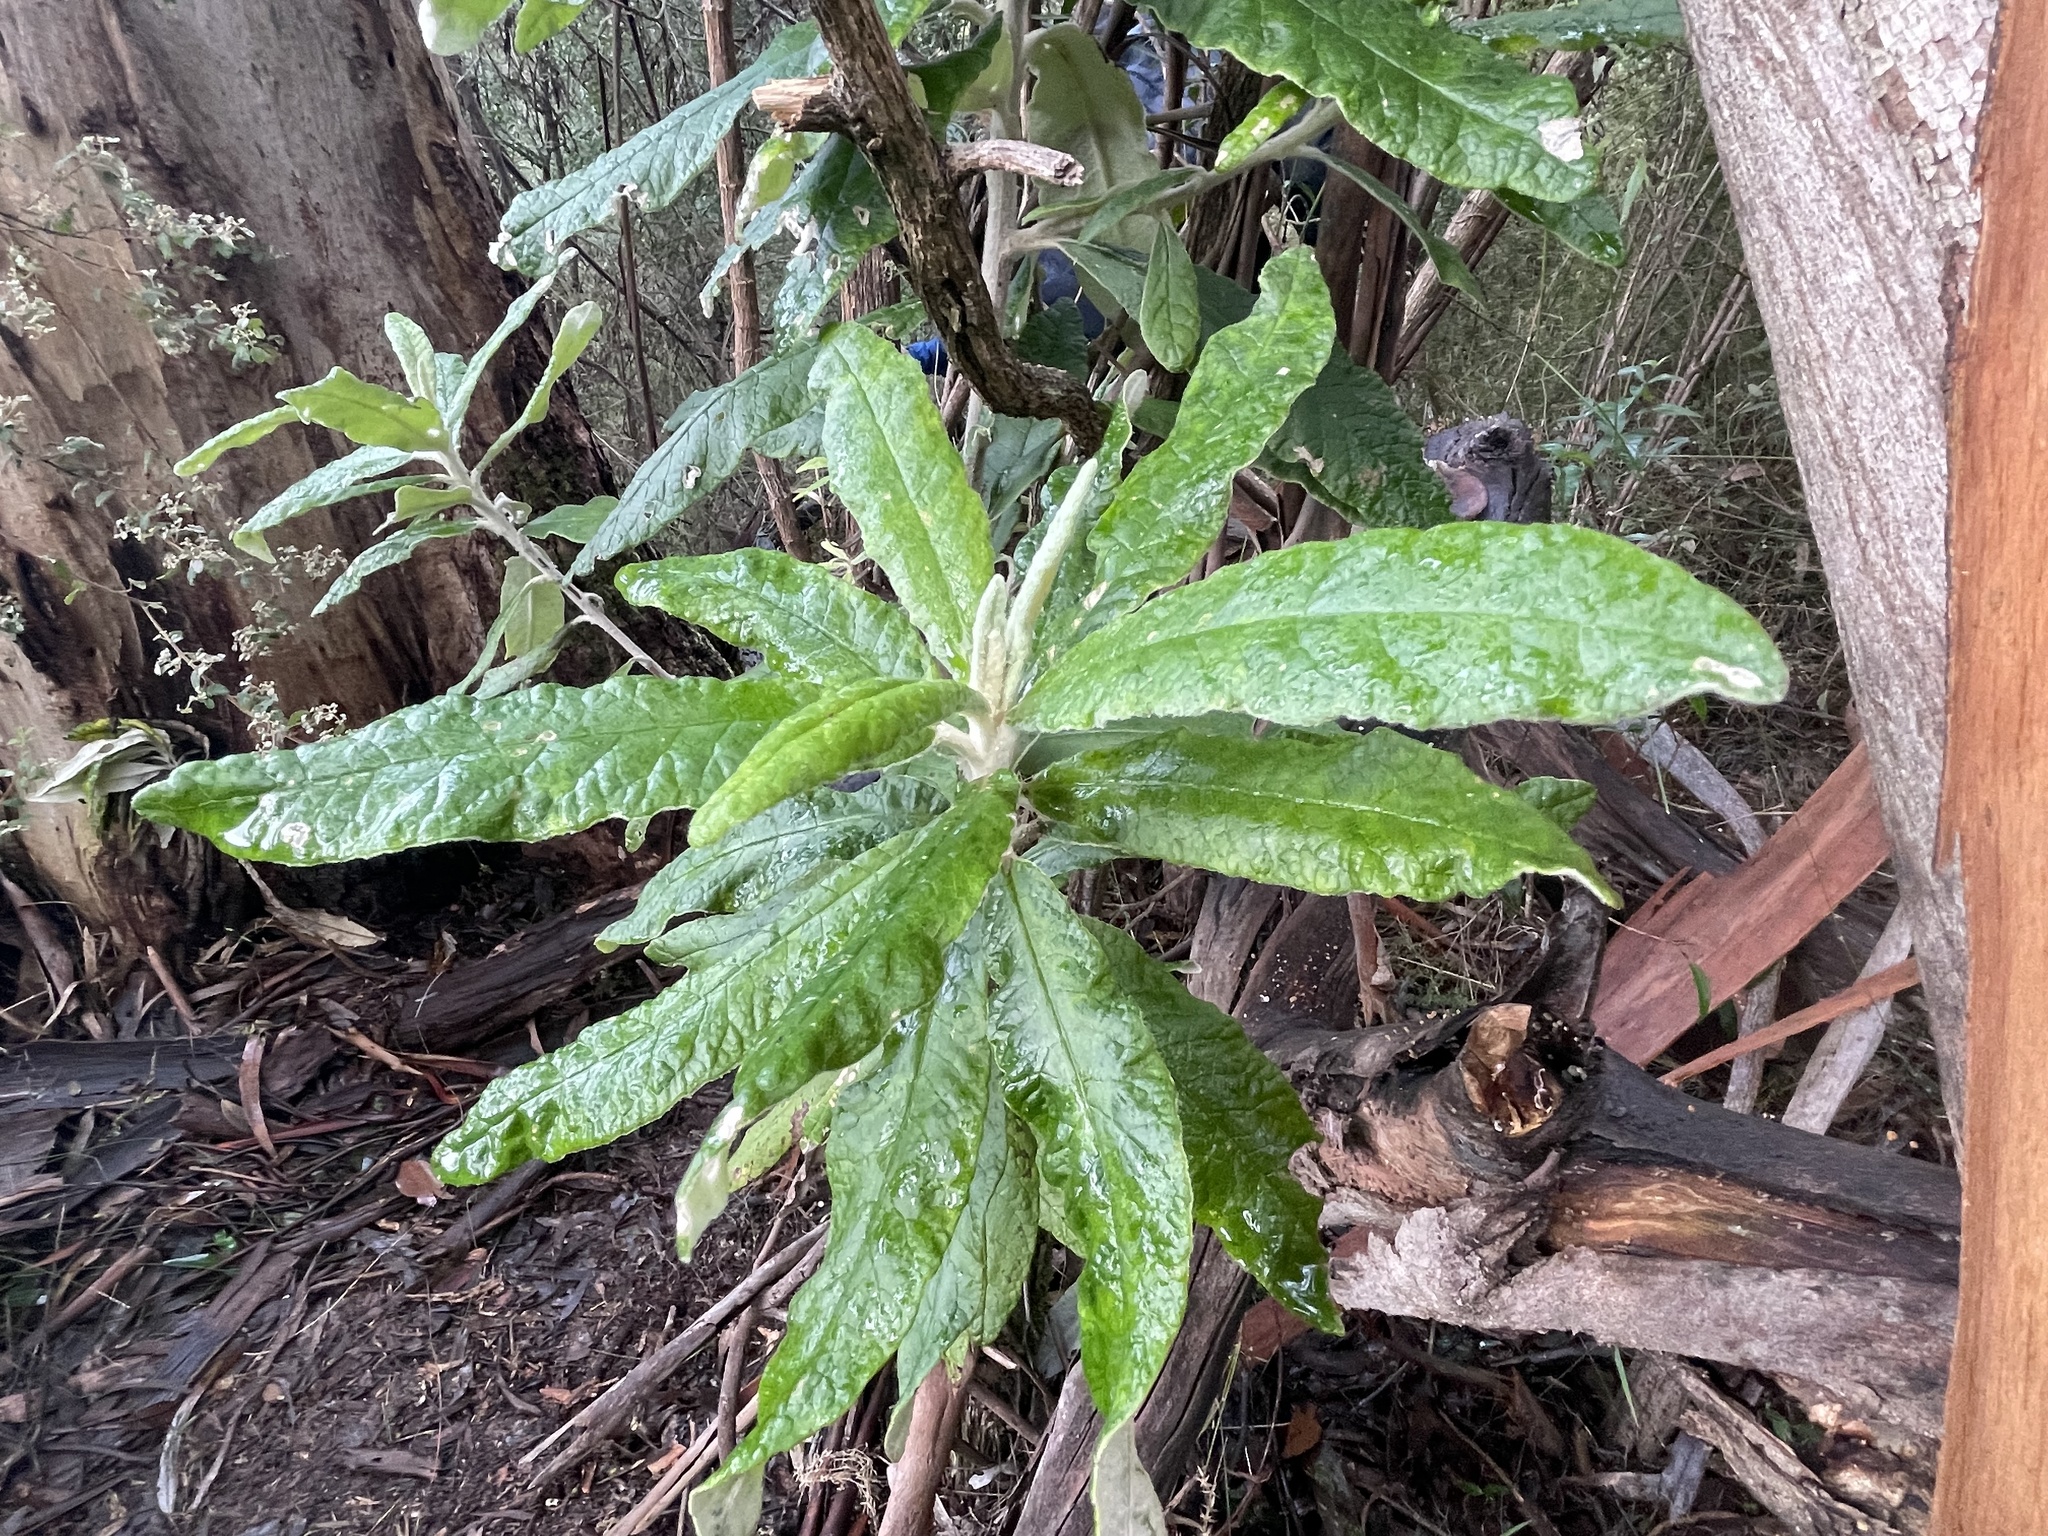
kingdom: Plantae
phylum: Tracheophyta
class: Magnoliopsida
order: Asterales
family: Asteraceae
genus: Bedfordia
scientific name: Bedfordia arborescens
